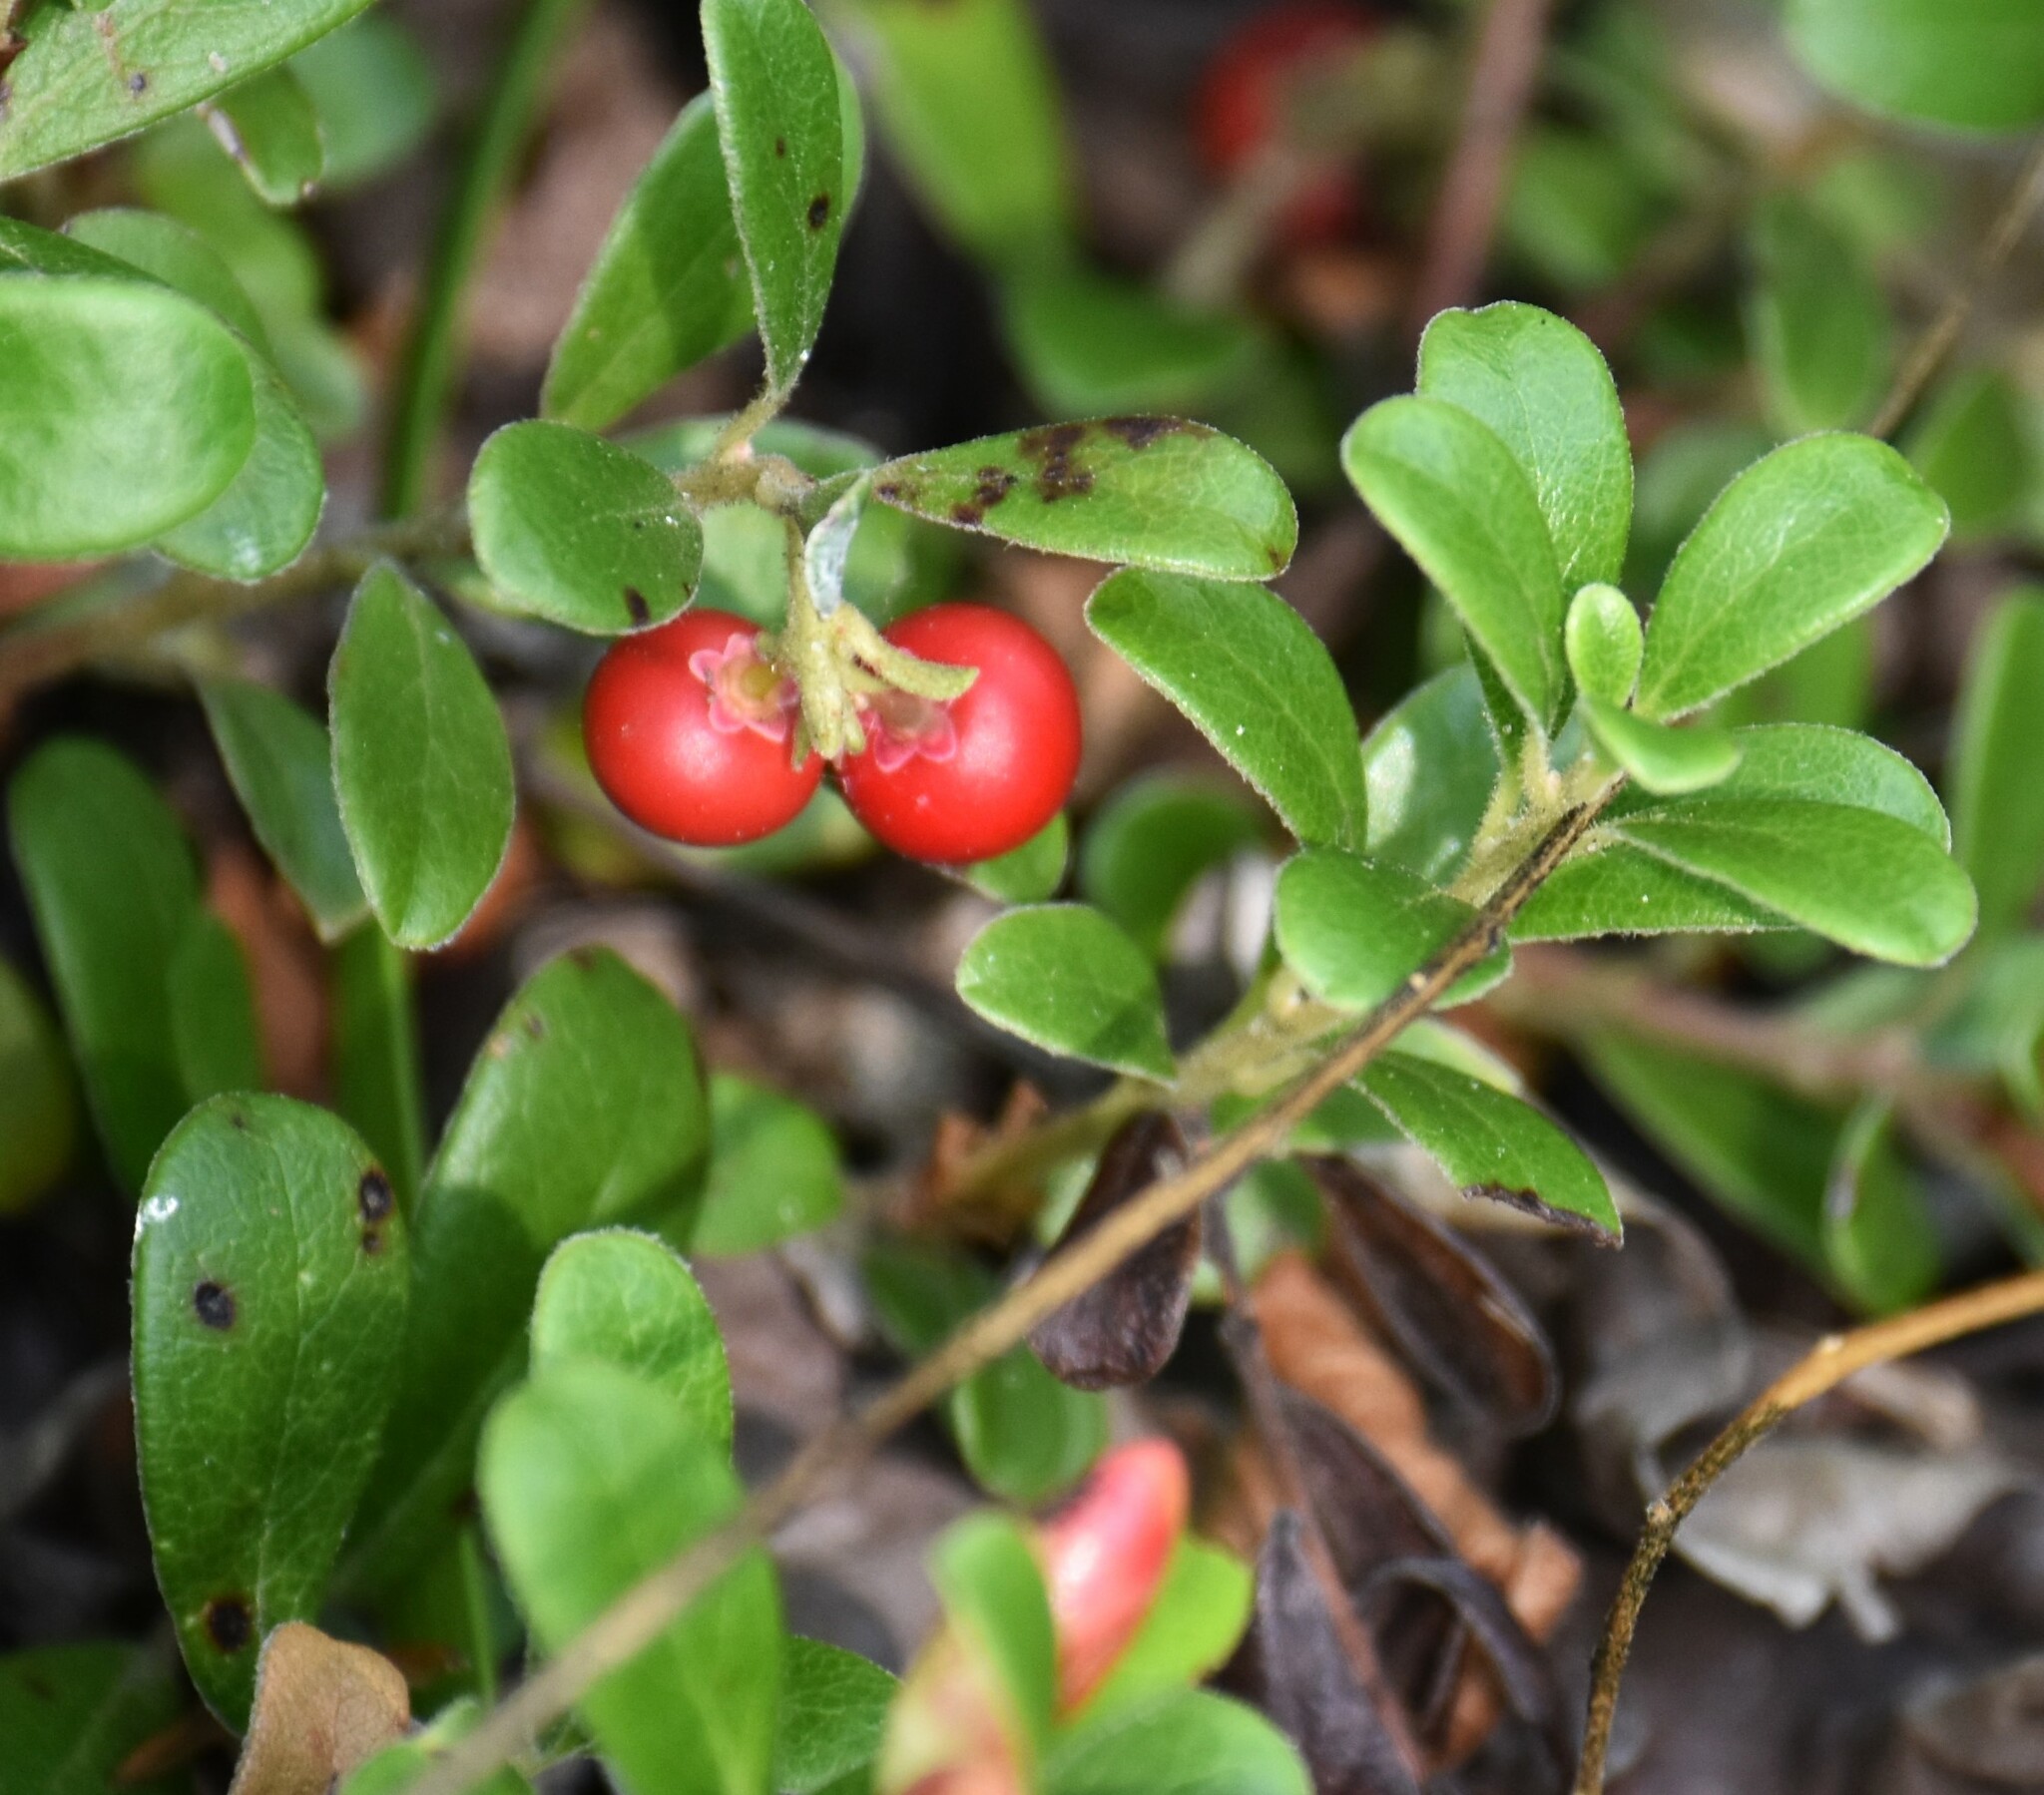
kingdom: Plantae
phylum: Tracheophyta
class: Magnoliopsida
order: Ericales
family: Ericaceae
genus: Arctostaphylos
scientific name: Arctostaphylos uva-ursi
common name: Bearberry
